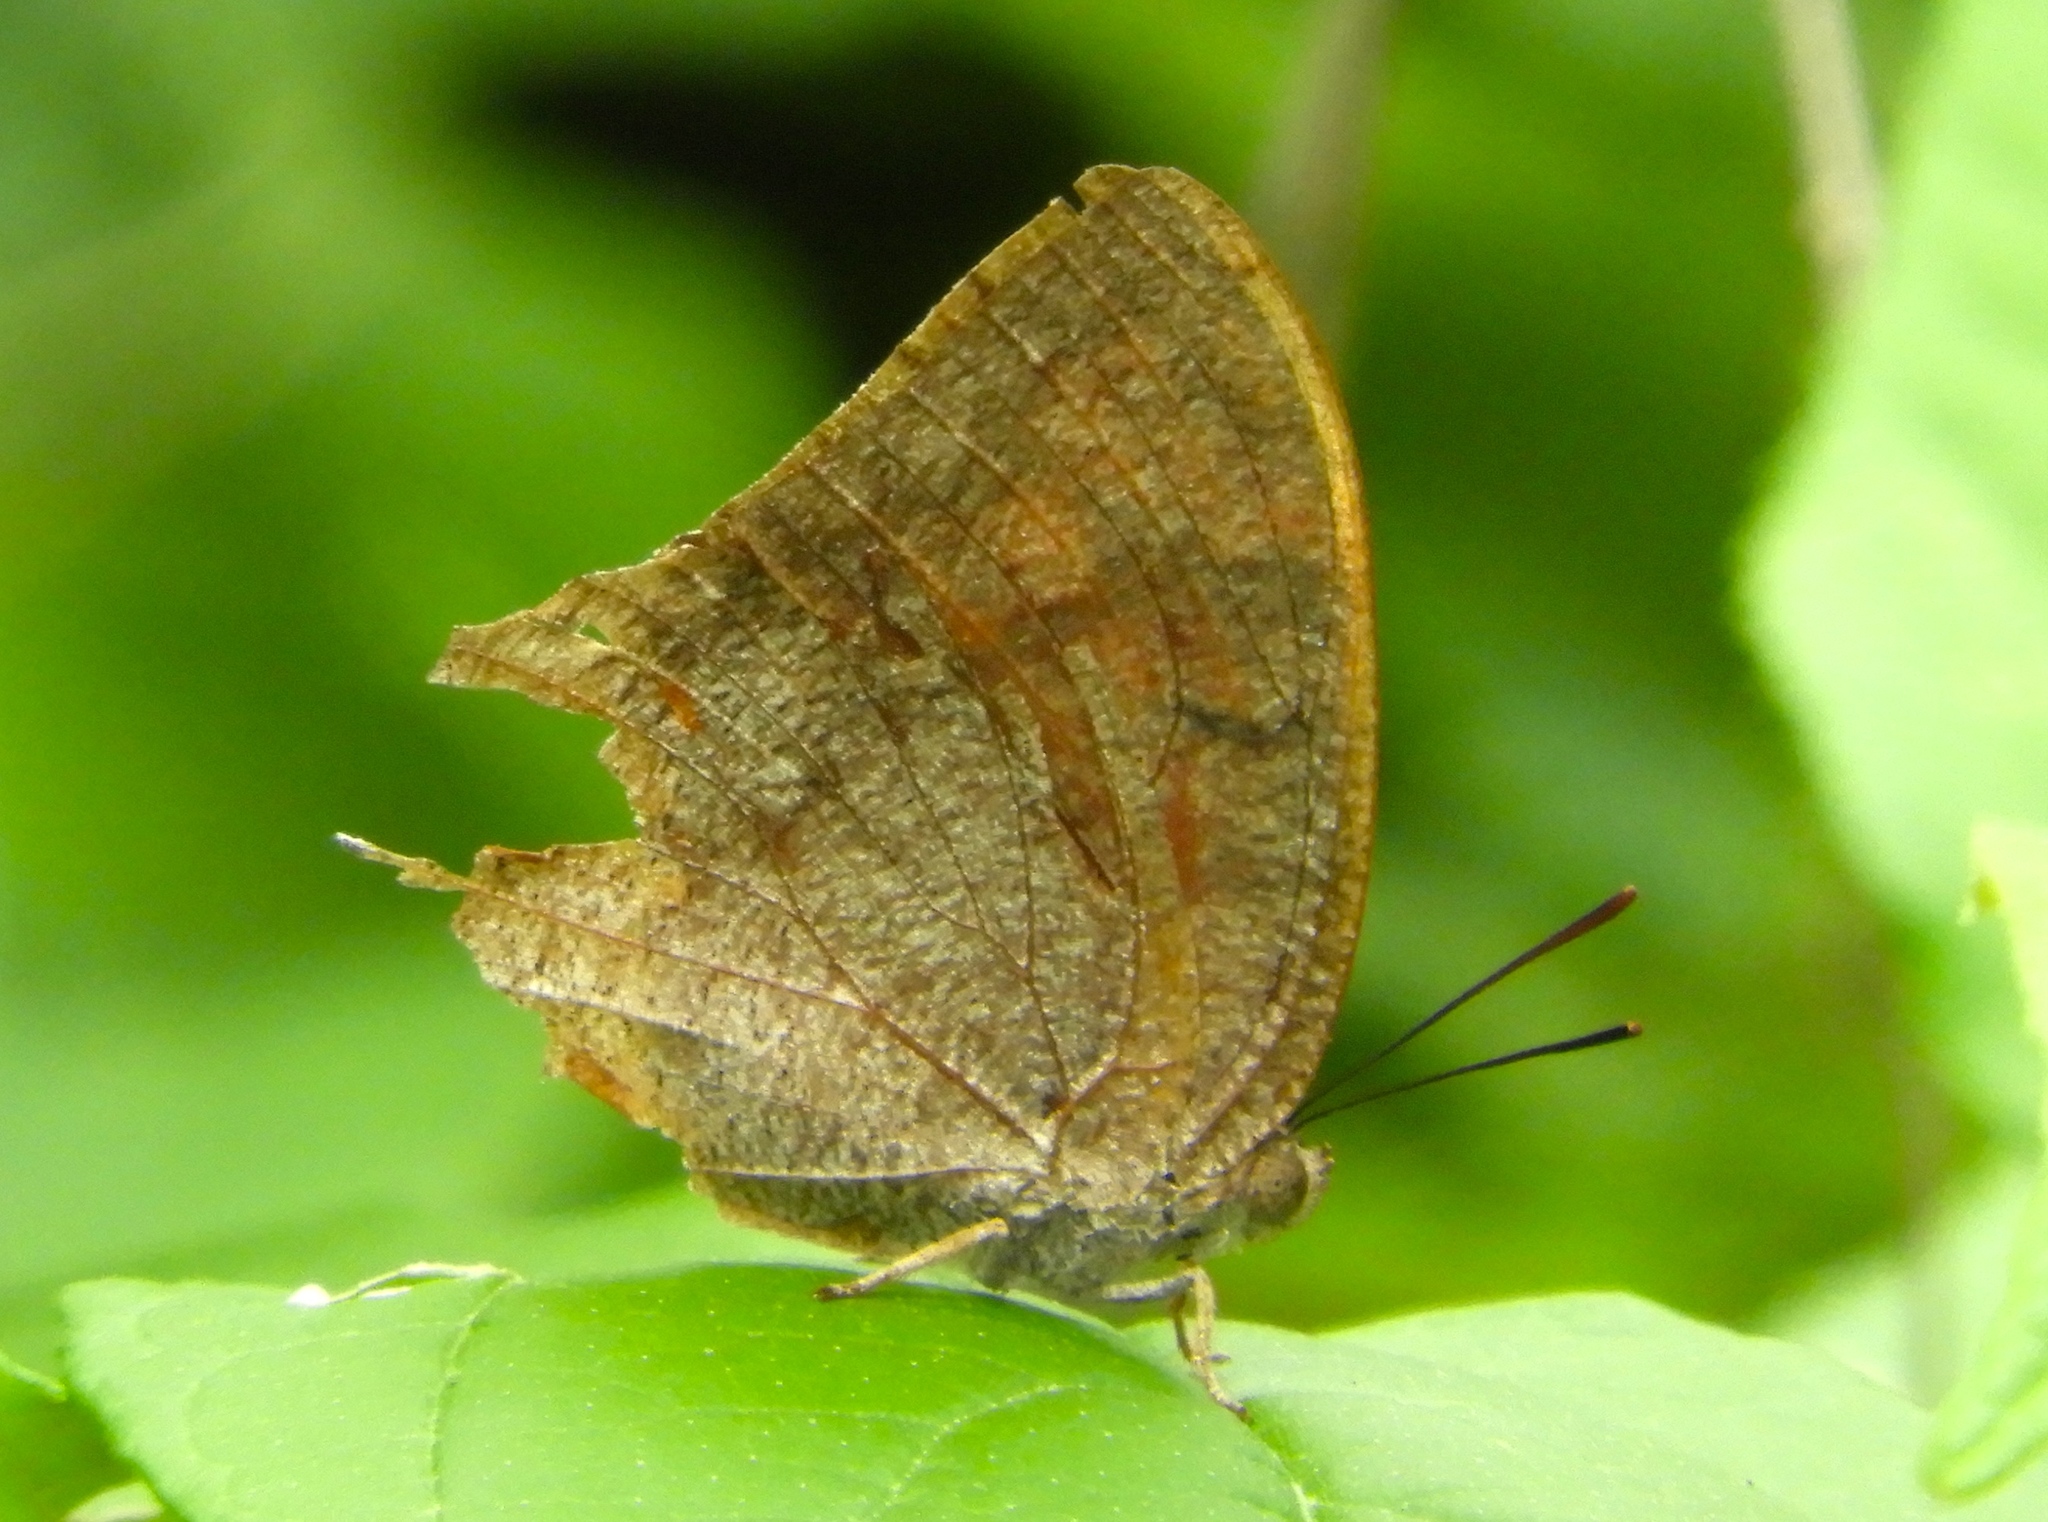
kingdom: Animalia
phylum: Arthropoda
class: Insecta
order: Lepidoptera
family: Nymphalidae
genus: Anaea
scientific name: Anaea aidea
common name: Tropical leafwing
